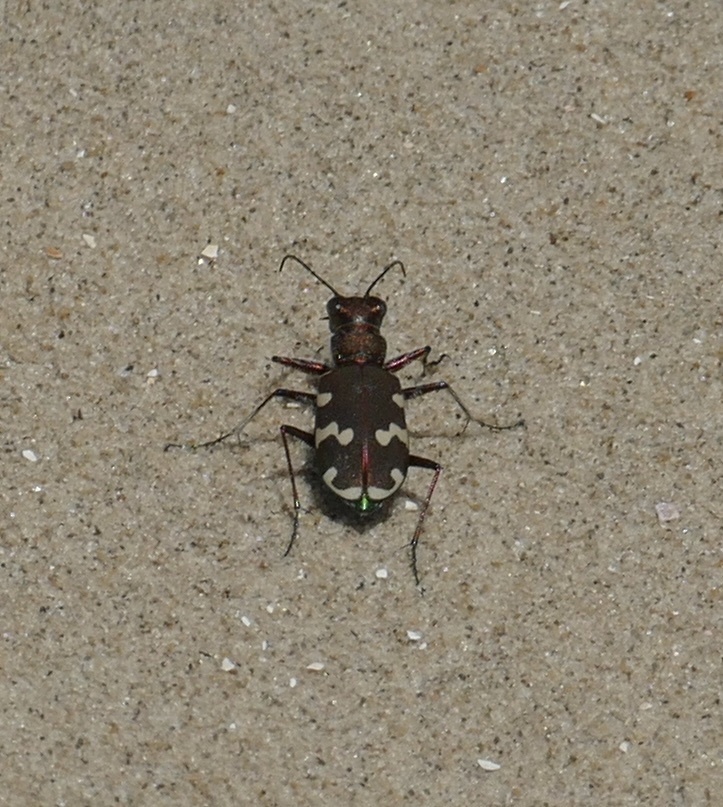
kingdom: Animalia
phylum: Arthropoda
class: Insecta
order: Coleoptera
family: Carabidae
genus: Cicindela
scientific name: Cicindela hybrida
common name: Northern dune tiger beetle
